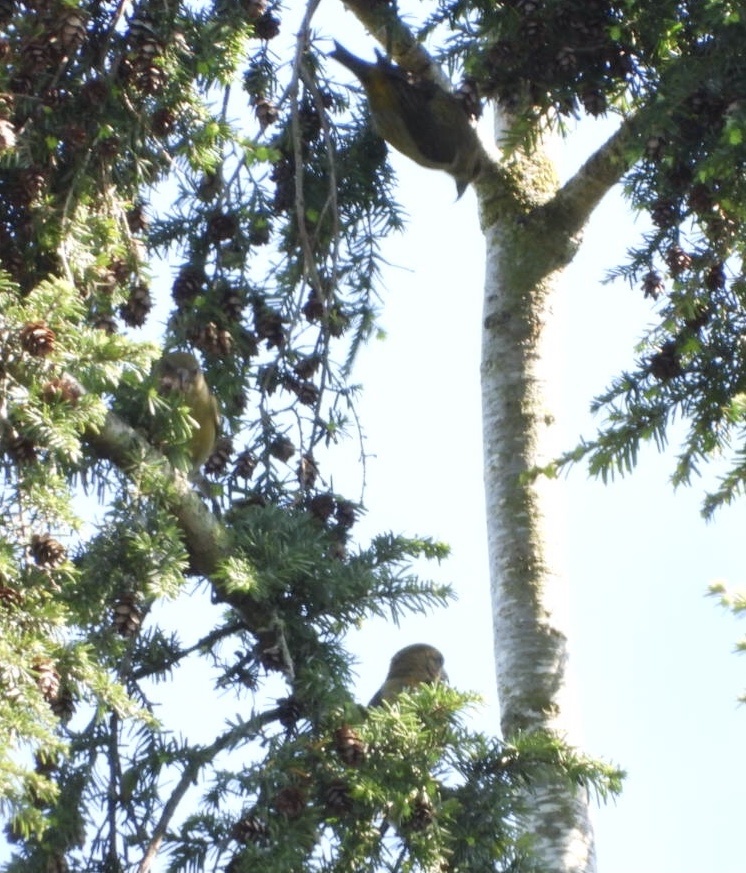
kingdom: Animalia
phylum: Chordata
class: Aves
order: Passeriformes
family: Fringillidae
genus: Loxia
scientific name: Loxia curvirostra
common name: Red crossbill
